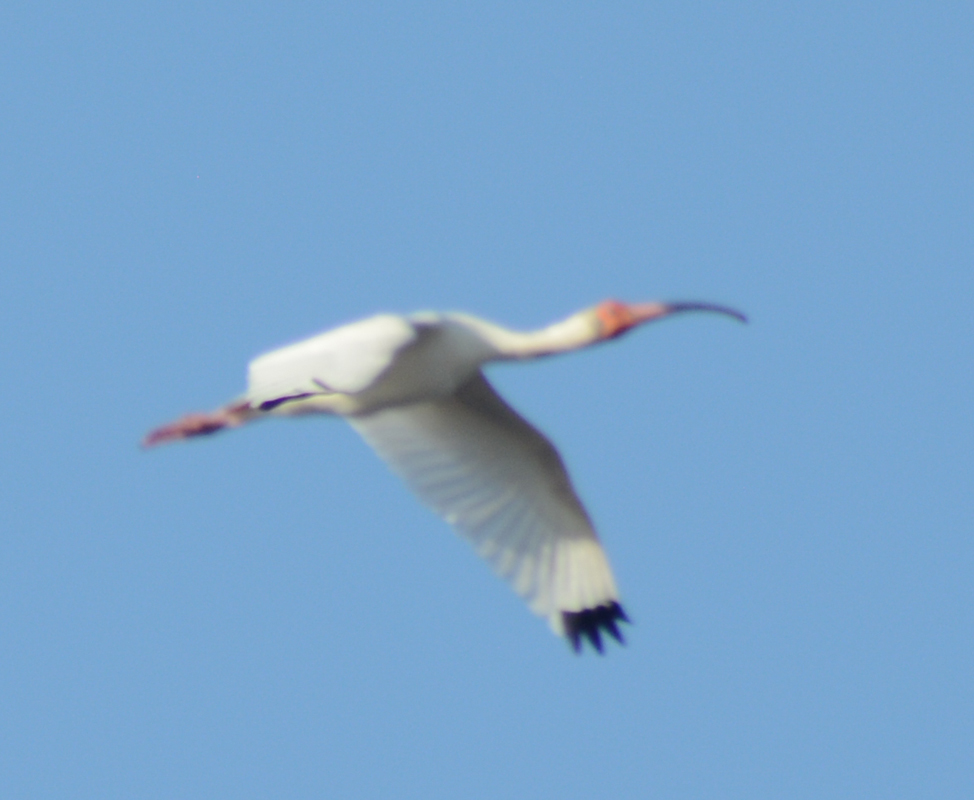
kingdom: Animalia
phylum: Chordata
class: Aves
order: Pelecaniformes
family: Threskiornithidae
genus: Eudocimus
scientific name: Eudocimus albus
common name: White ibis
